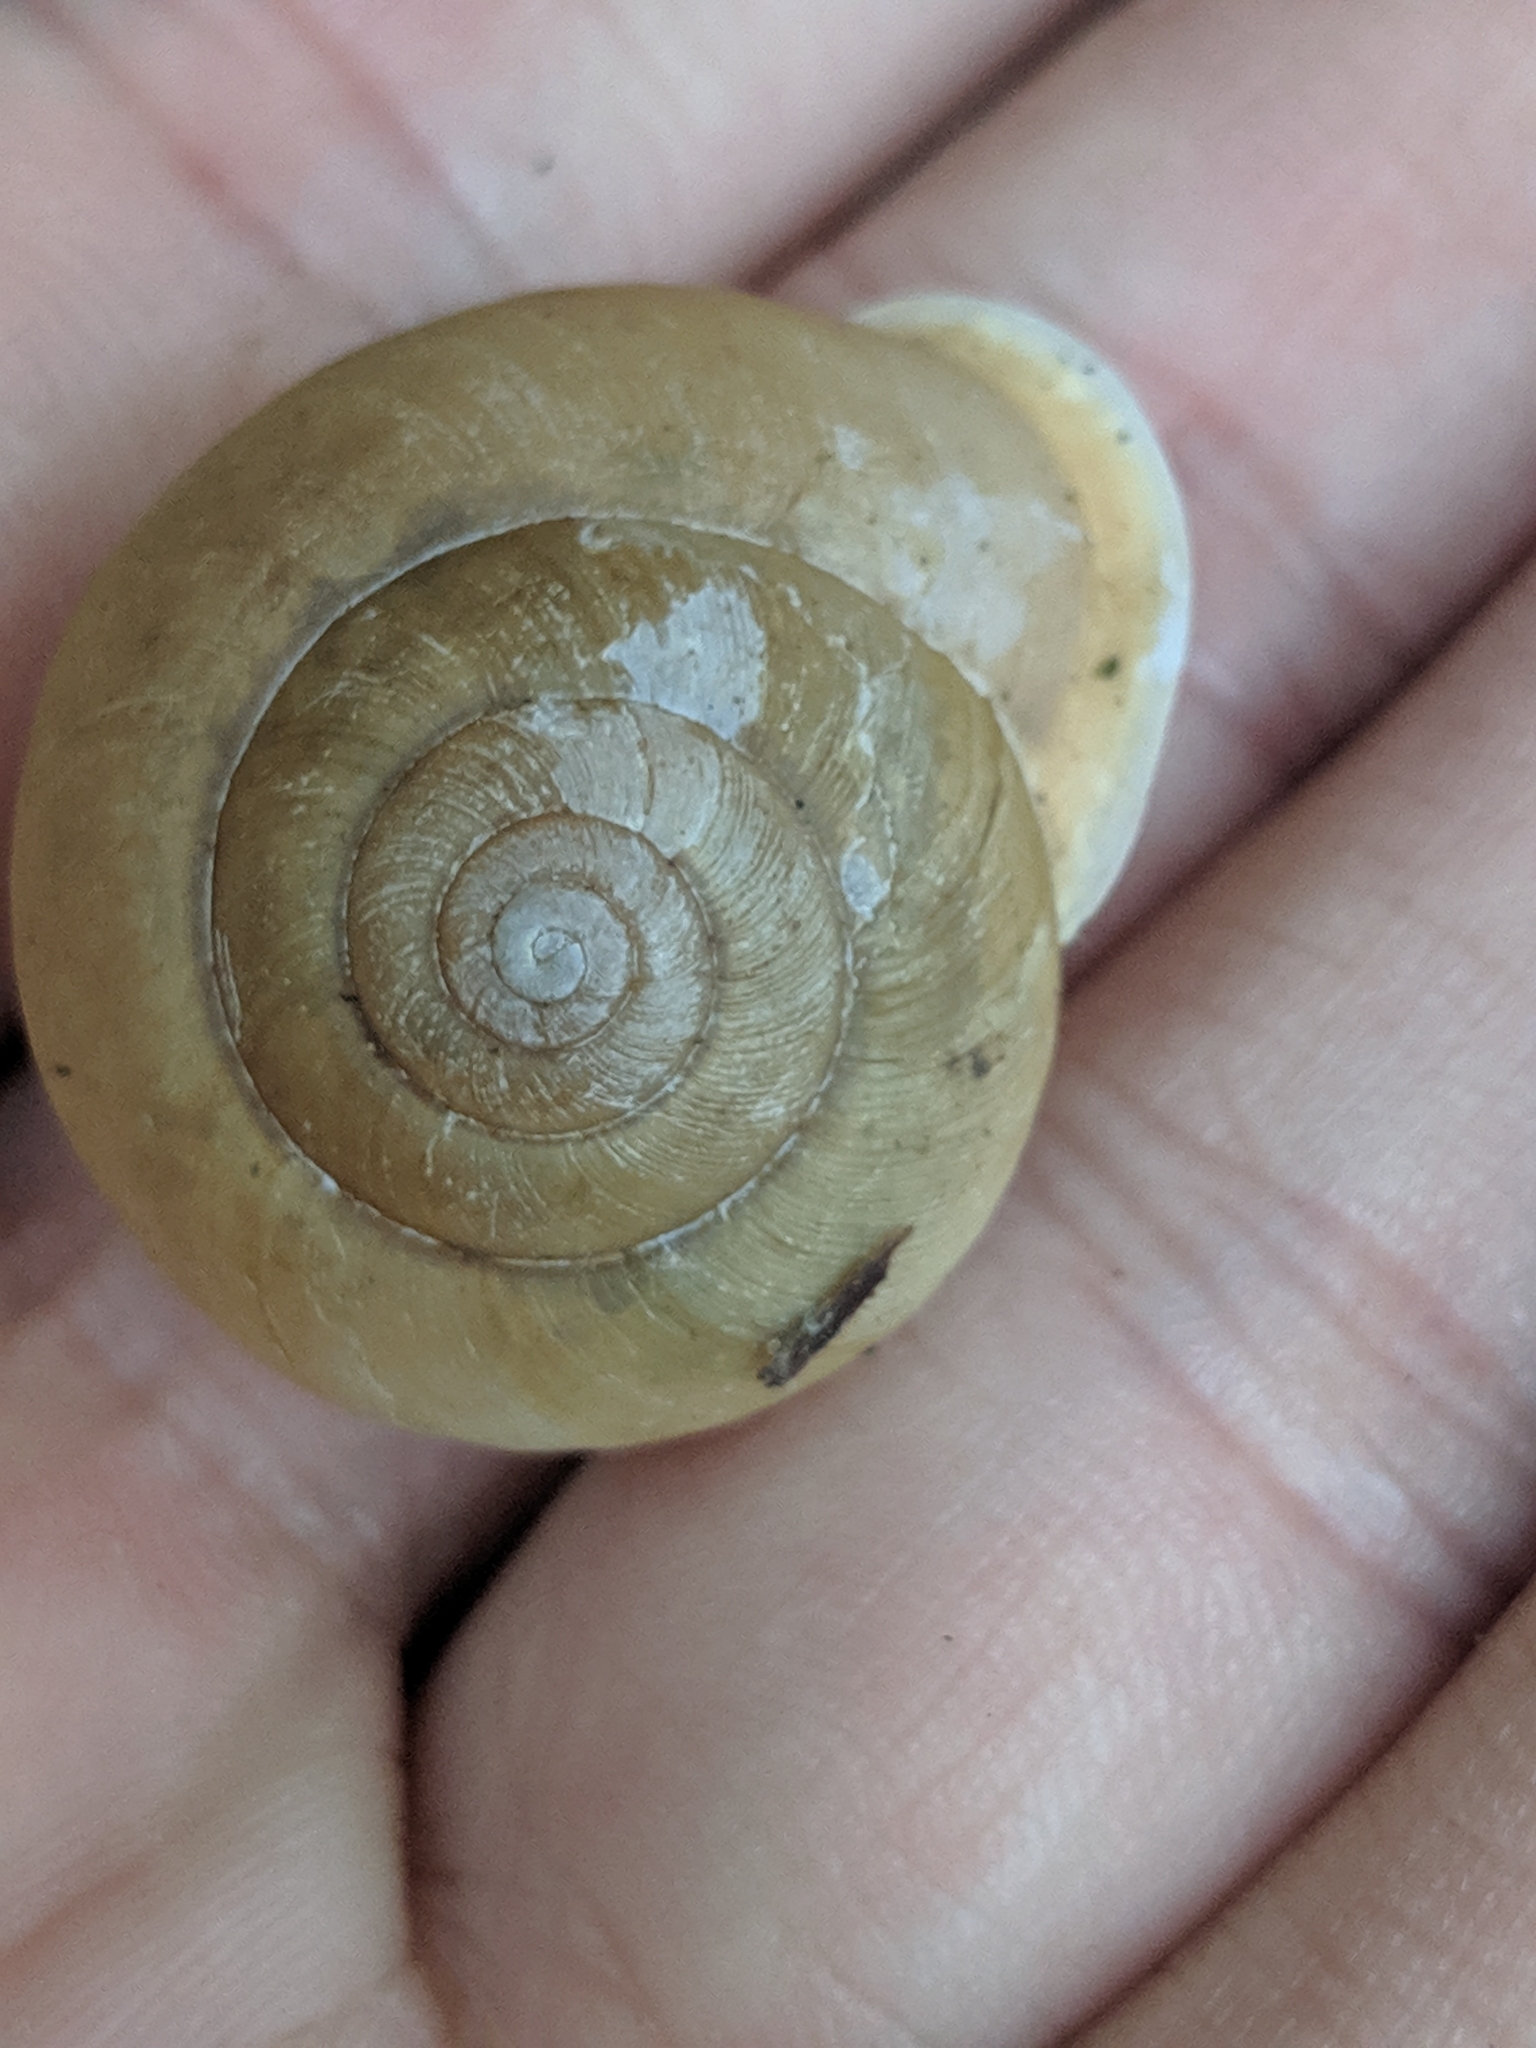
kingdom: Animalia
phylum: Mollusca
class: Gastropoda
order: Stylommatophora
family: Polygyridae
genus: Mesodon
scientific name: Mesodon zaletus
